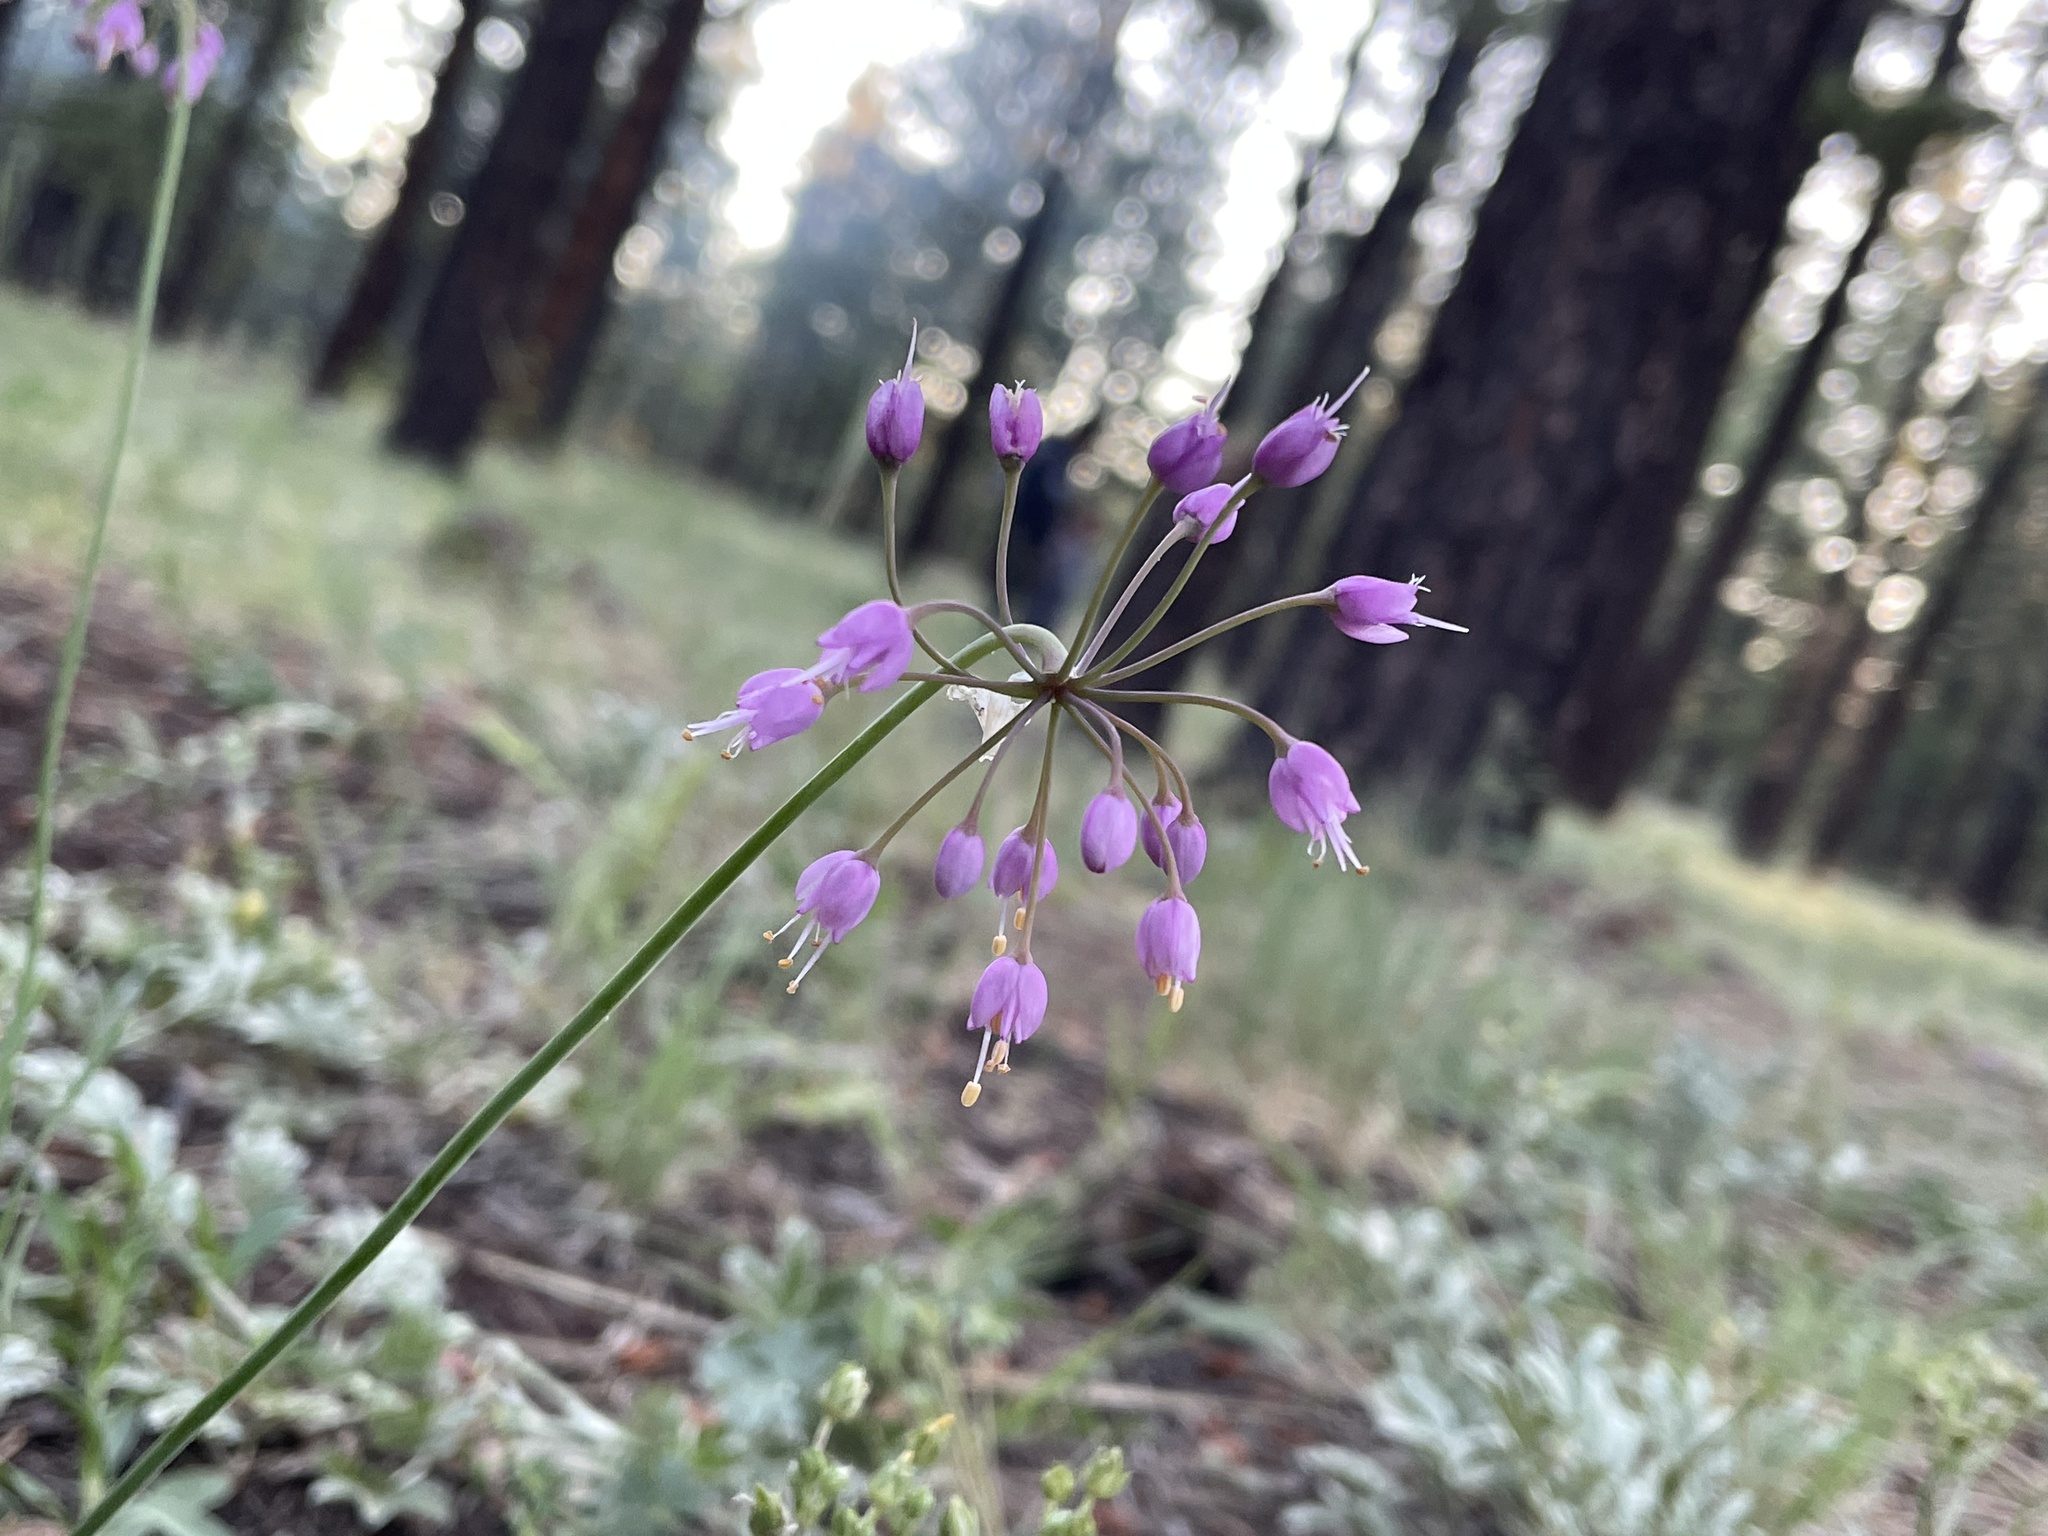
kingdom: Plantae
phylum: Tracheophyta
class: Liliopsida
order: Asparagales
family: Amaryllidaceae
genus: Allium
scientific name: Allium cernuum
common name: Nodding onion
